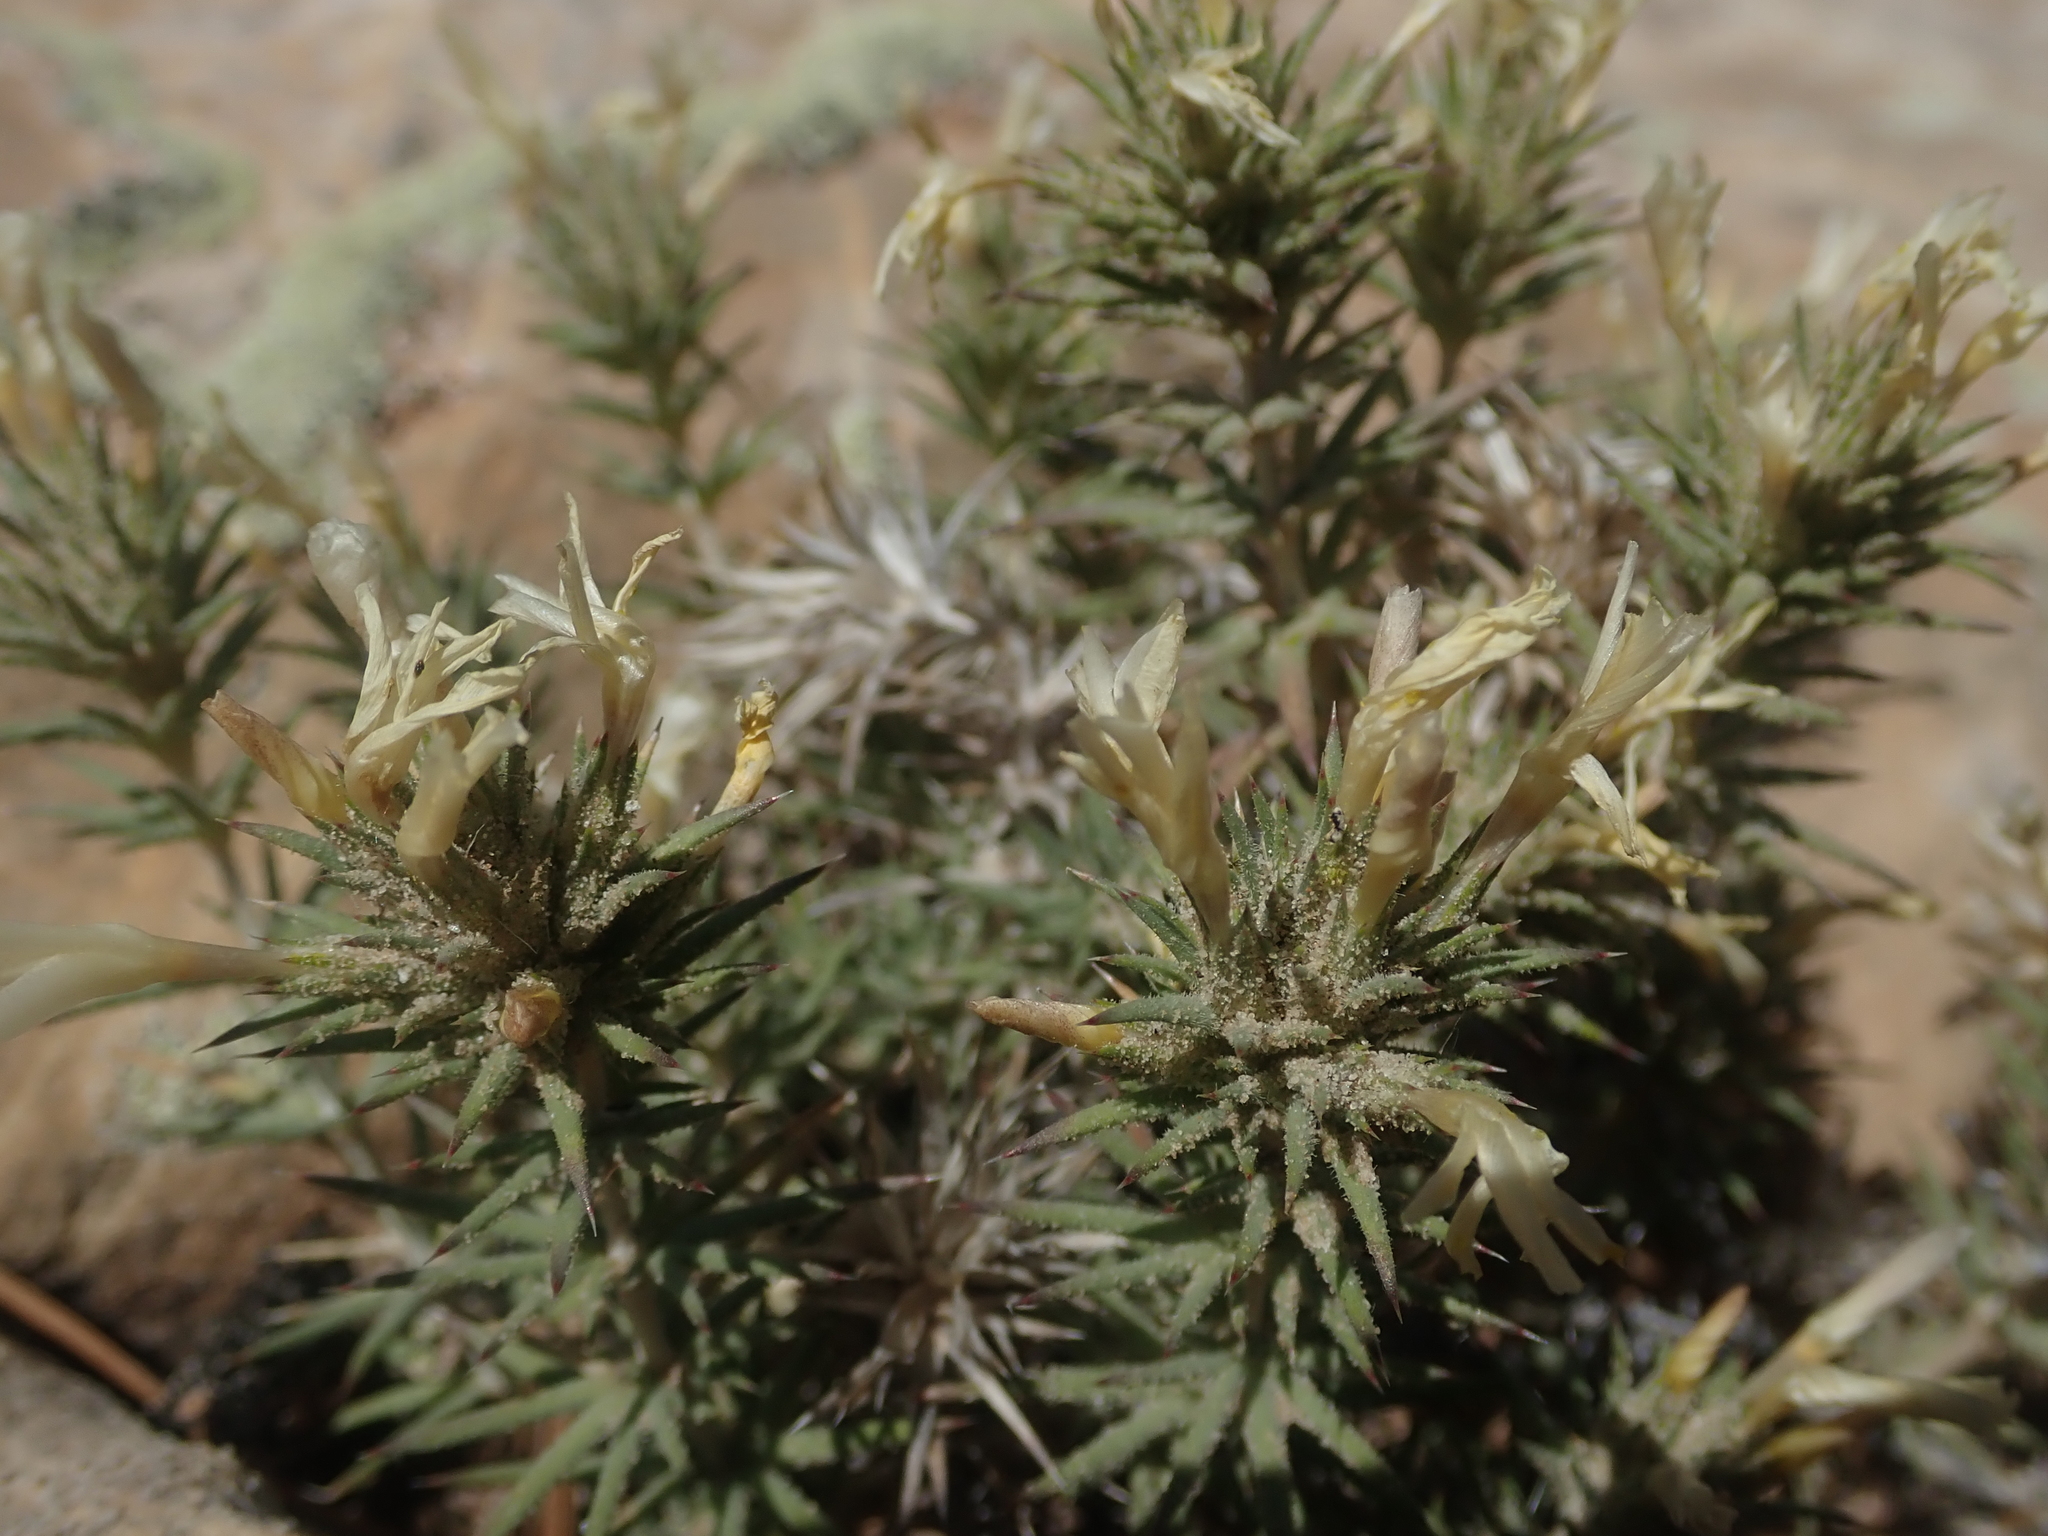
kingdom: Plantae
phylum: Tracheophyta
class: Magnoliopsida
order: Ericales
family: Polemoniaceae
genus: Linanthus
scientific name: Linanthus pungens
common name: Granite prickly phlox
